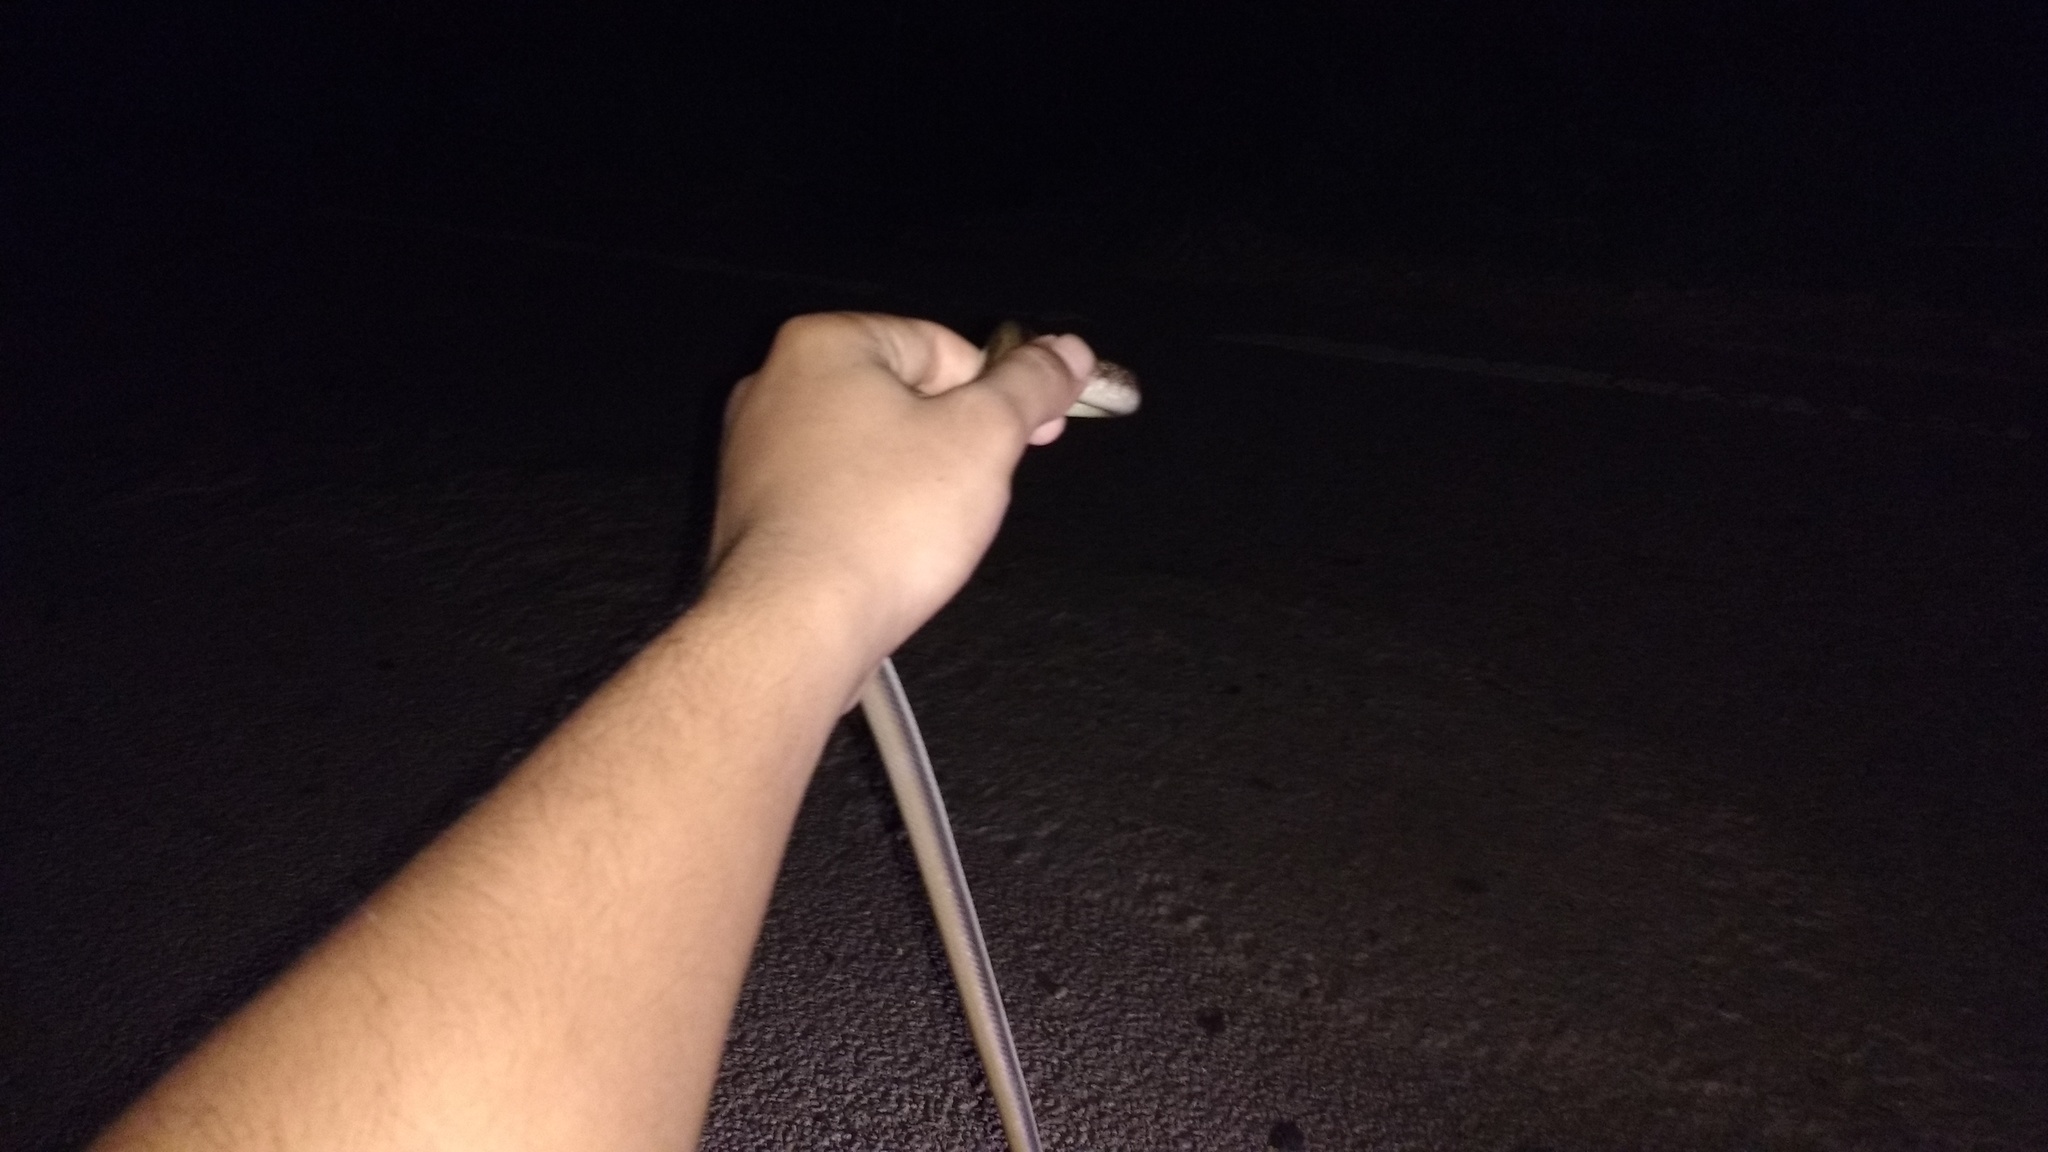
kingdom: Animalia
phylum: Chordata
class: Squamata
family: Colubridae
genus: Coelognathus
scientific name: Coelognathus helena
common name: Trinket snake
